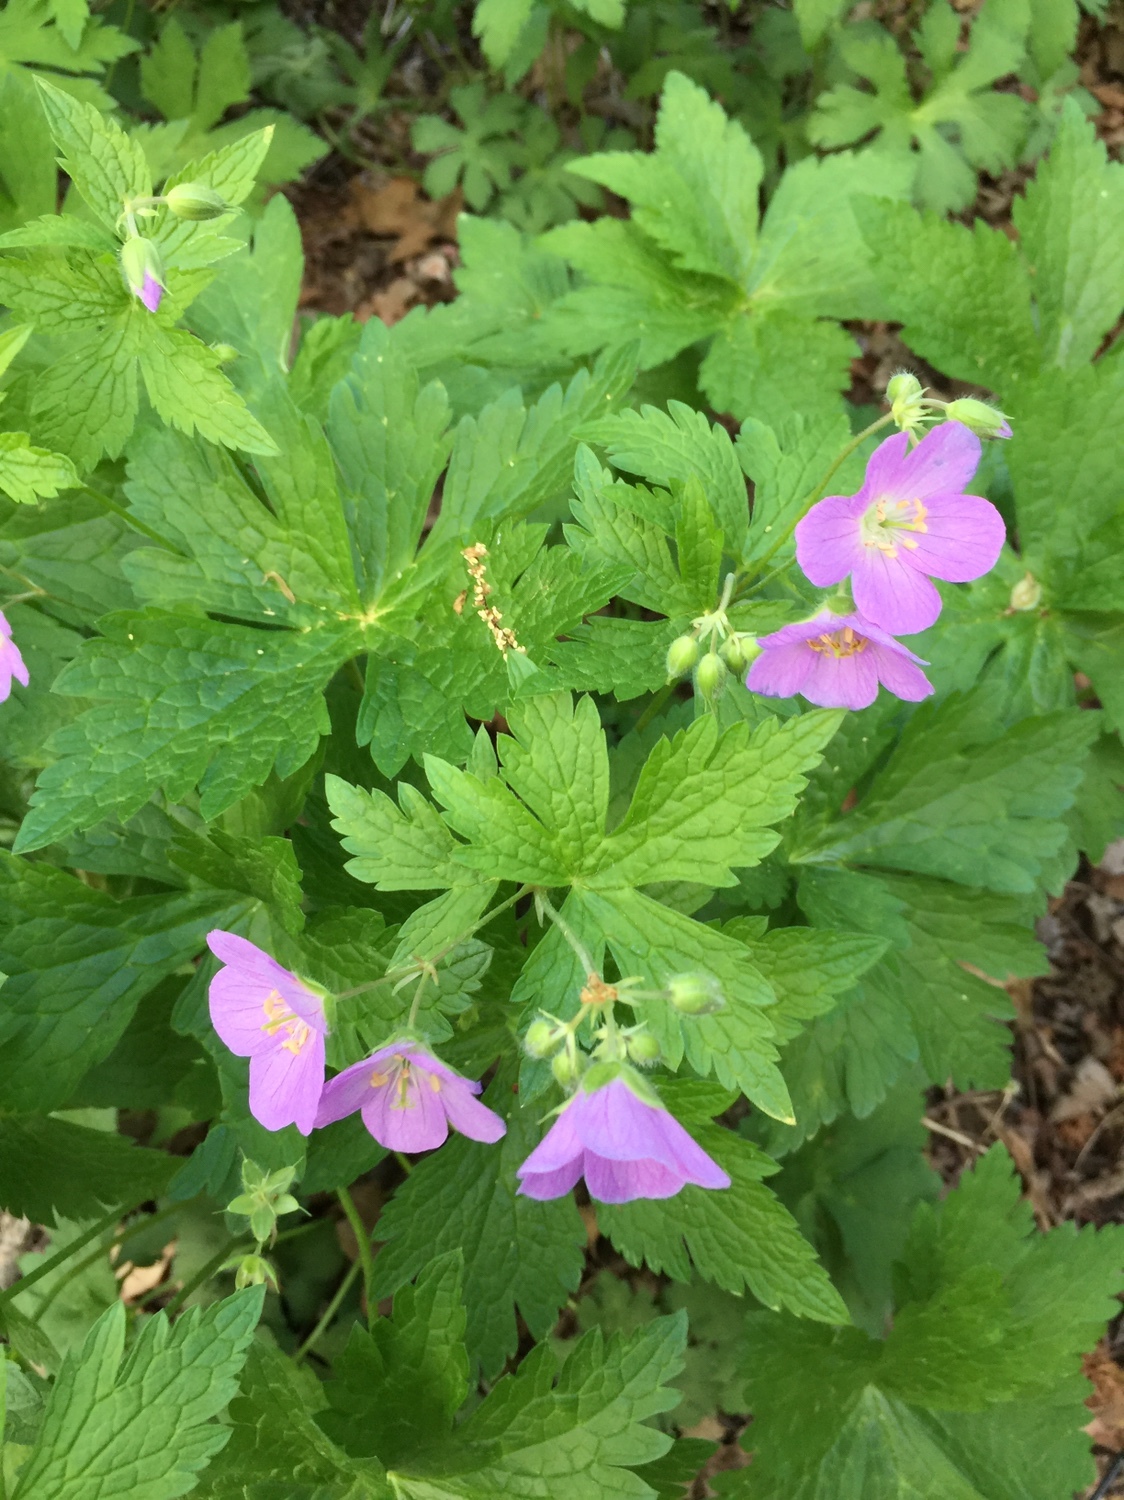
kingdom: Plantae
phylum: Tracheophyta
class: Magnoliopsida
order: Geraniales
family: Geraniaceae
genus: Geranium
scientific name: Geranium maculatum
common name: Spotted geranium
